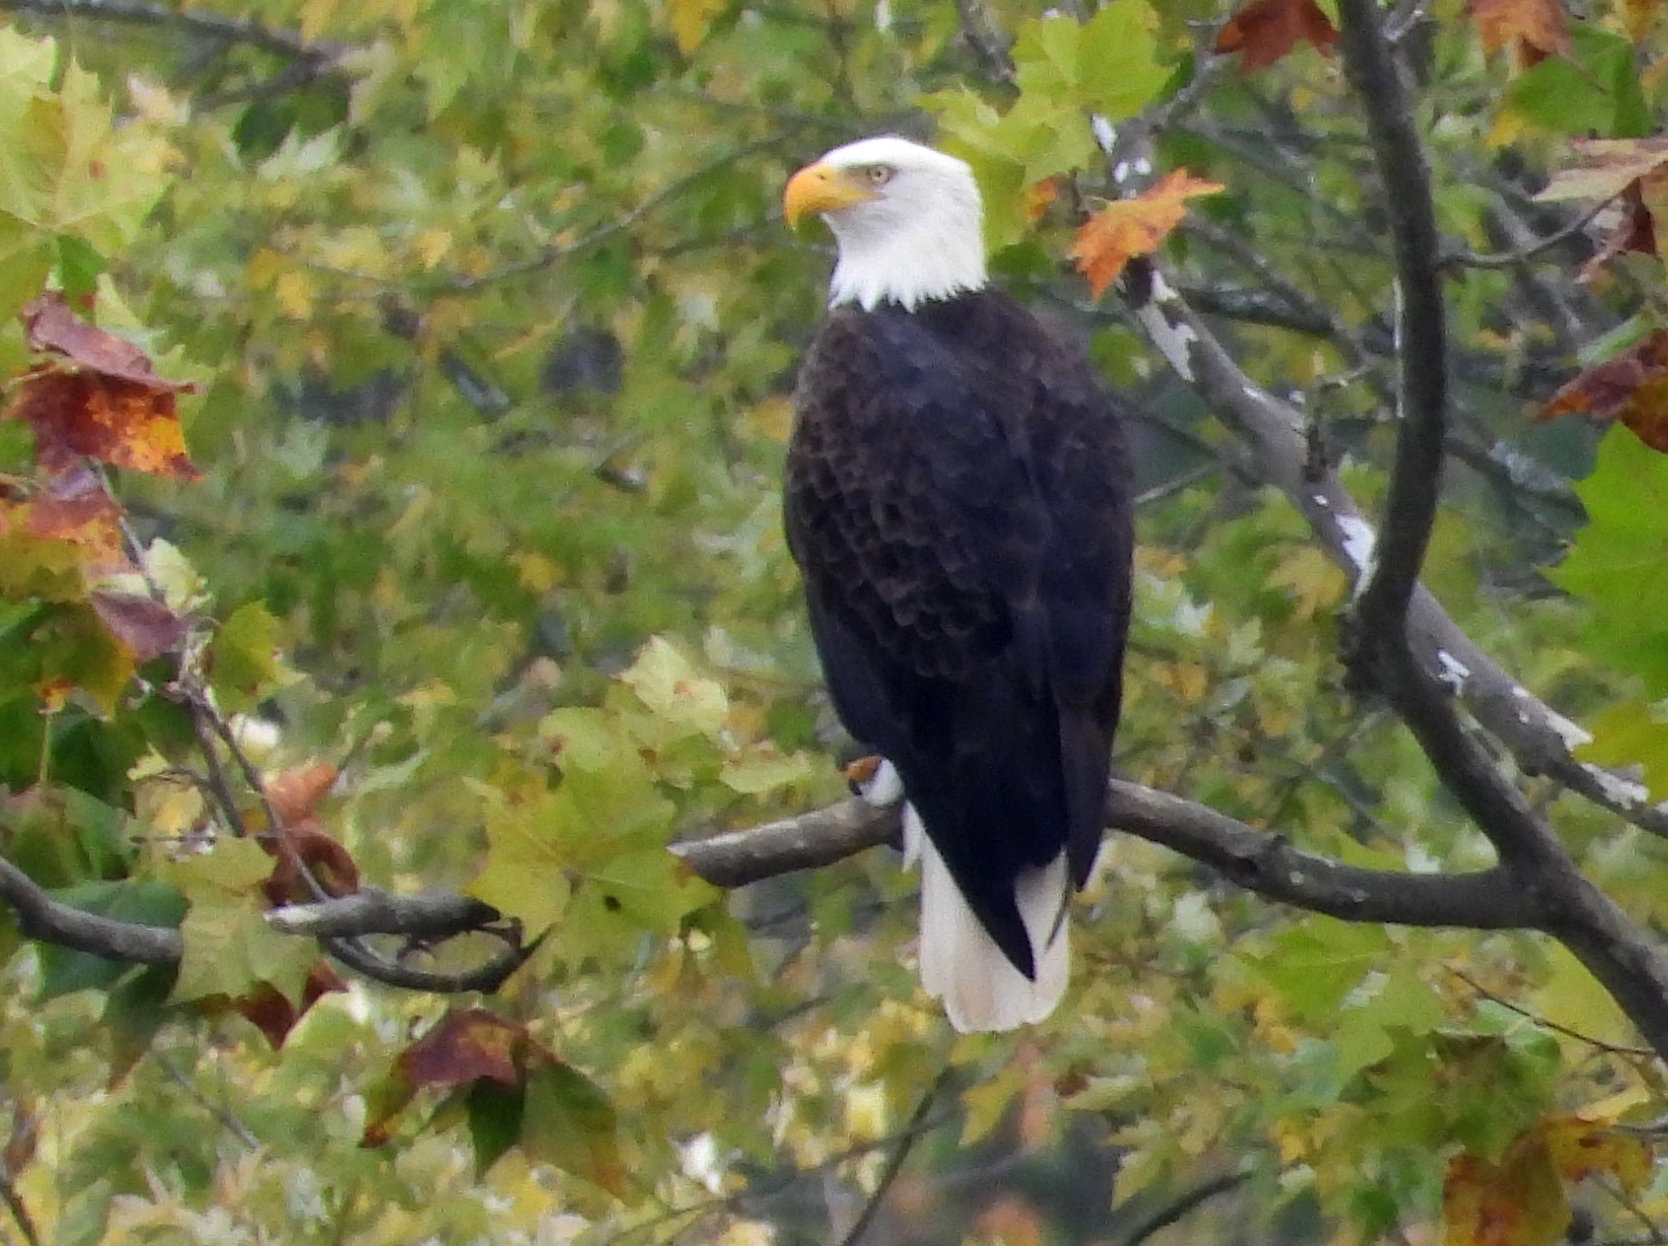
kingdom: Animalia
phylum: Chordata
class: Aves
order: Accipitriformes
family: Accipitridae
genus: Haliaeetus
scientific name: Haliaeetus leucocephalus
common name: Bald eagle
